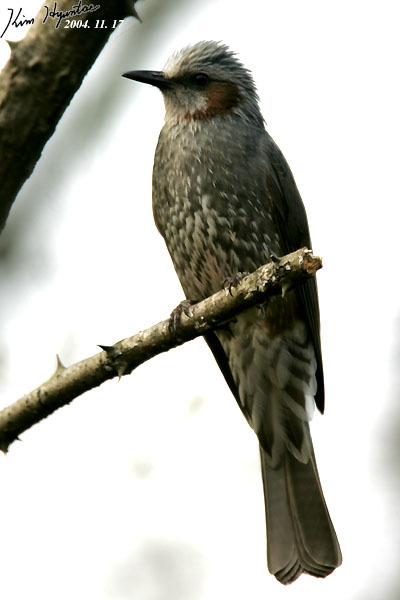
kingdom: Animalia
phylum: Chordata
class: Aves
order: Passeriformes
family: Pycnonotidae
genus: Hypsipetes
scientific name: Hypsipetes amaurotis
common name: Brown-eared bulbul
